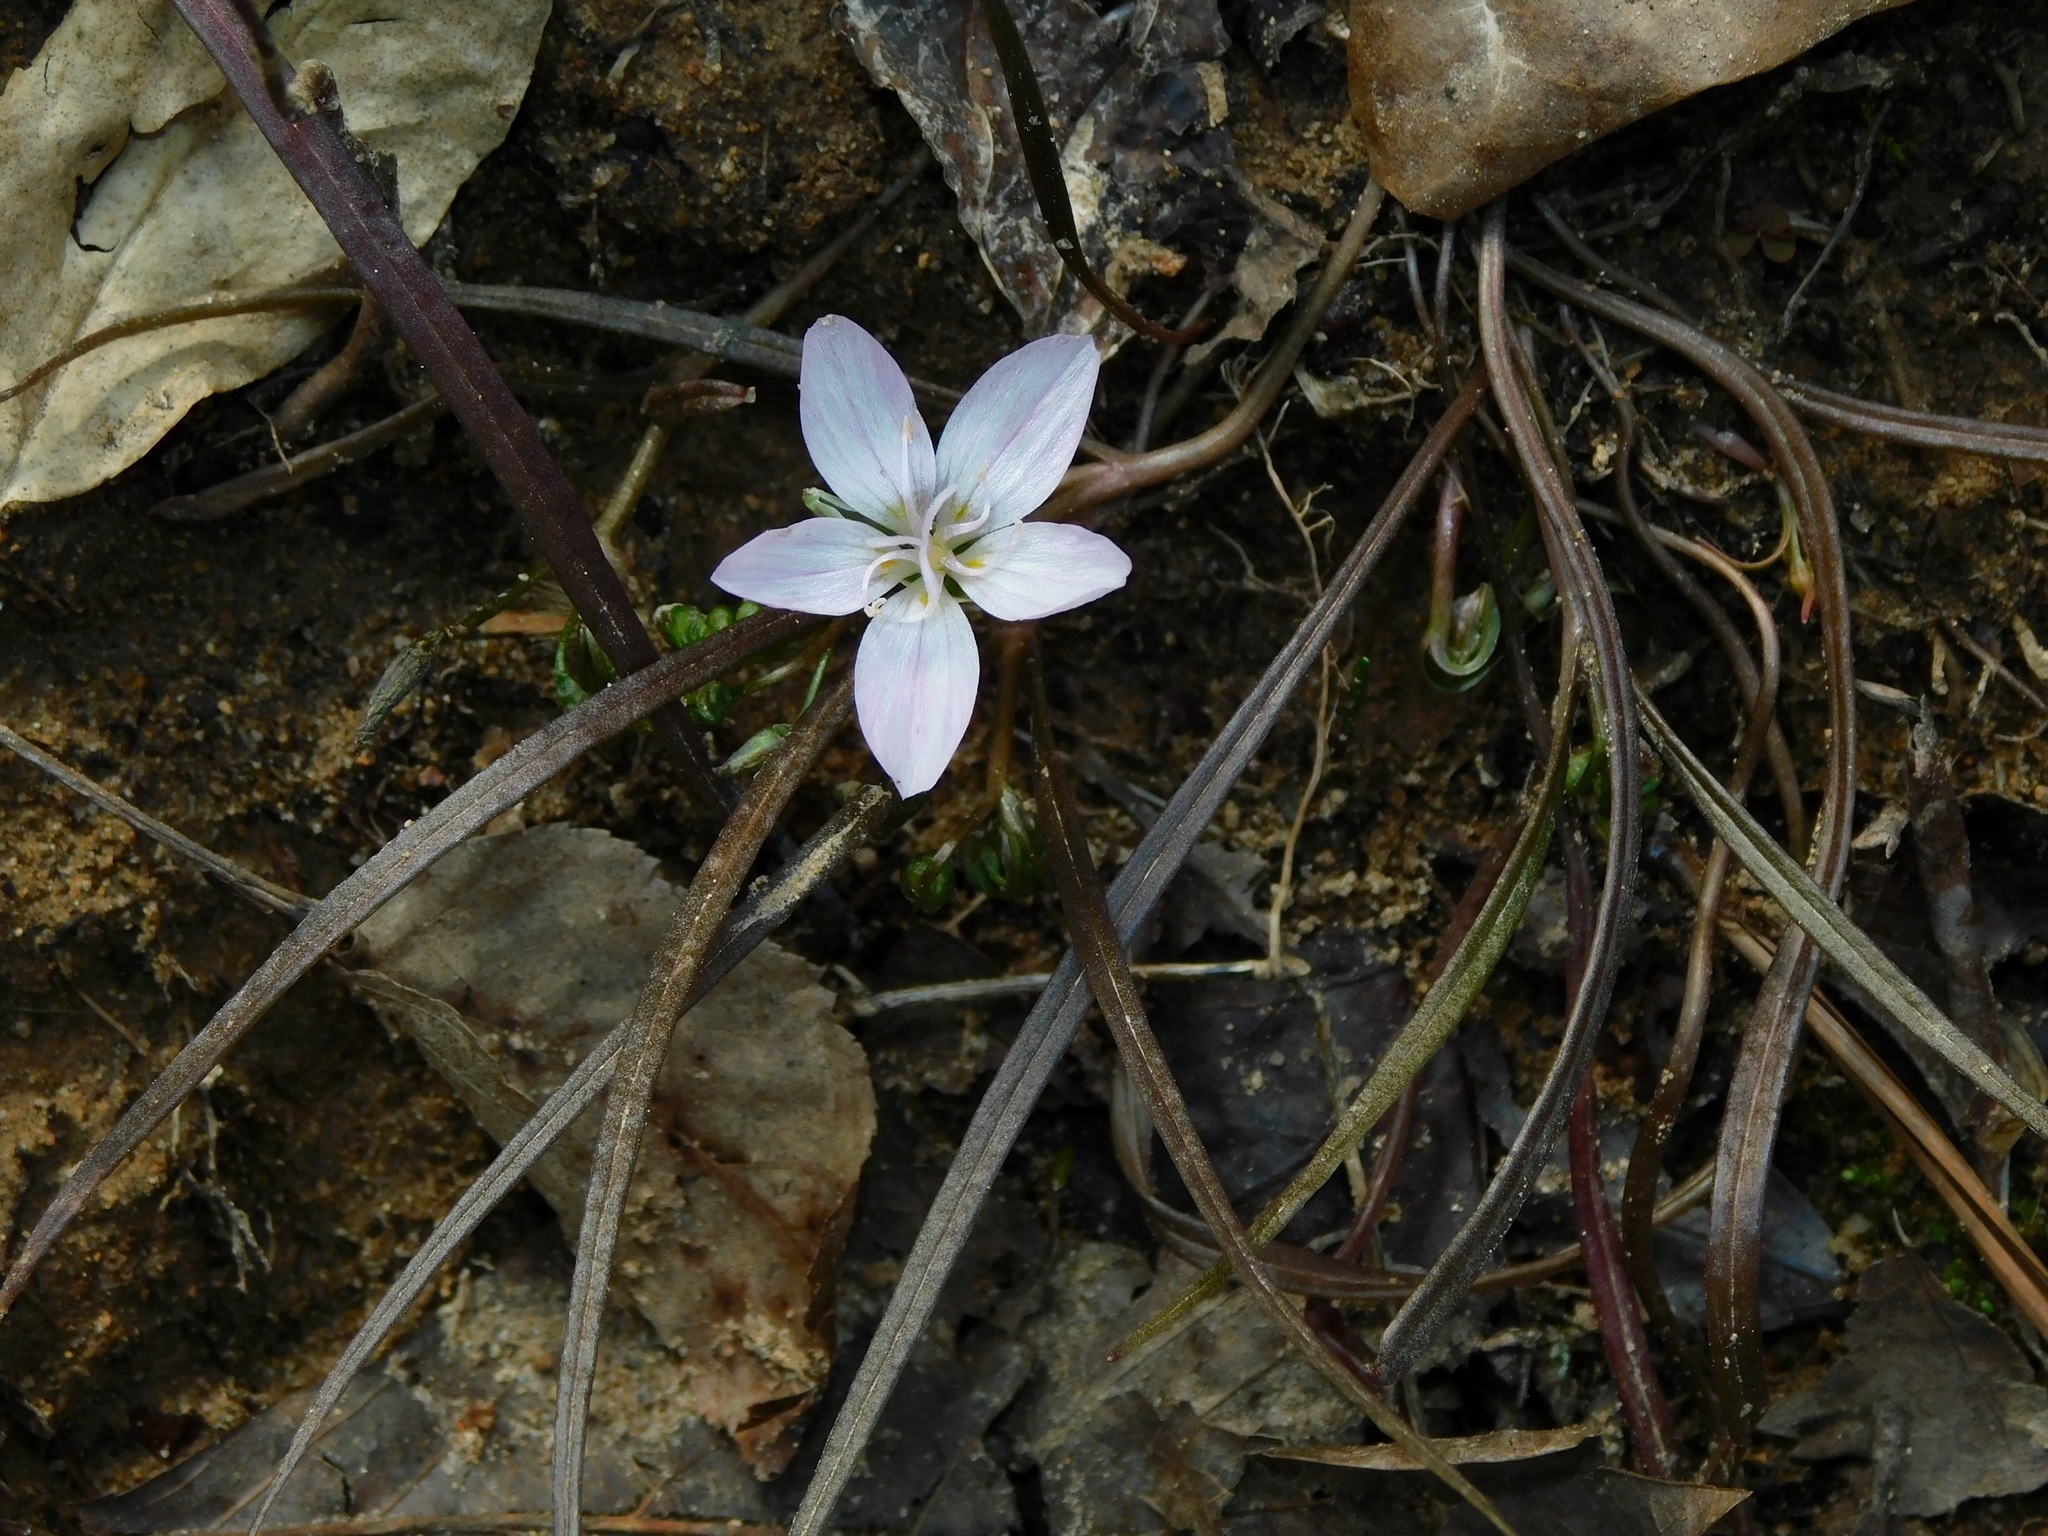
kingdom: Plantae
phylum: Tracheophyta
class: Magnoliopsida
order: Caryophyllales
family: Montiaceae
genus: Claytonia
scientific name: Claytonia virginica
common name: Virginia springbeauty
